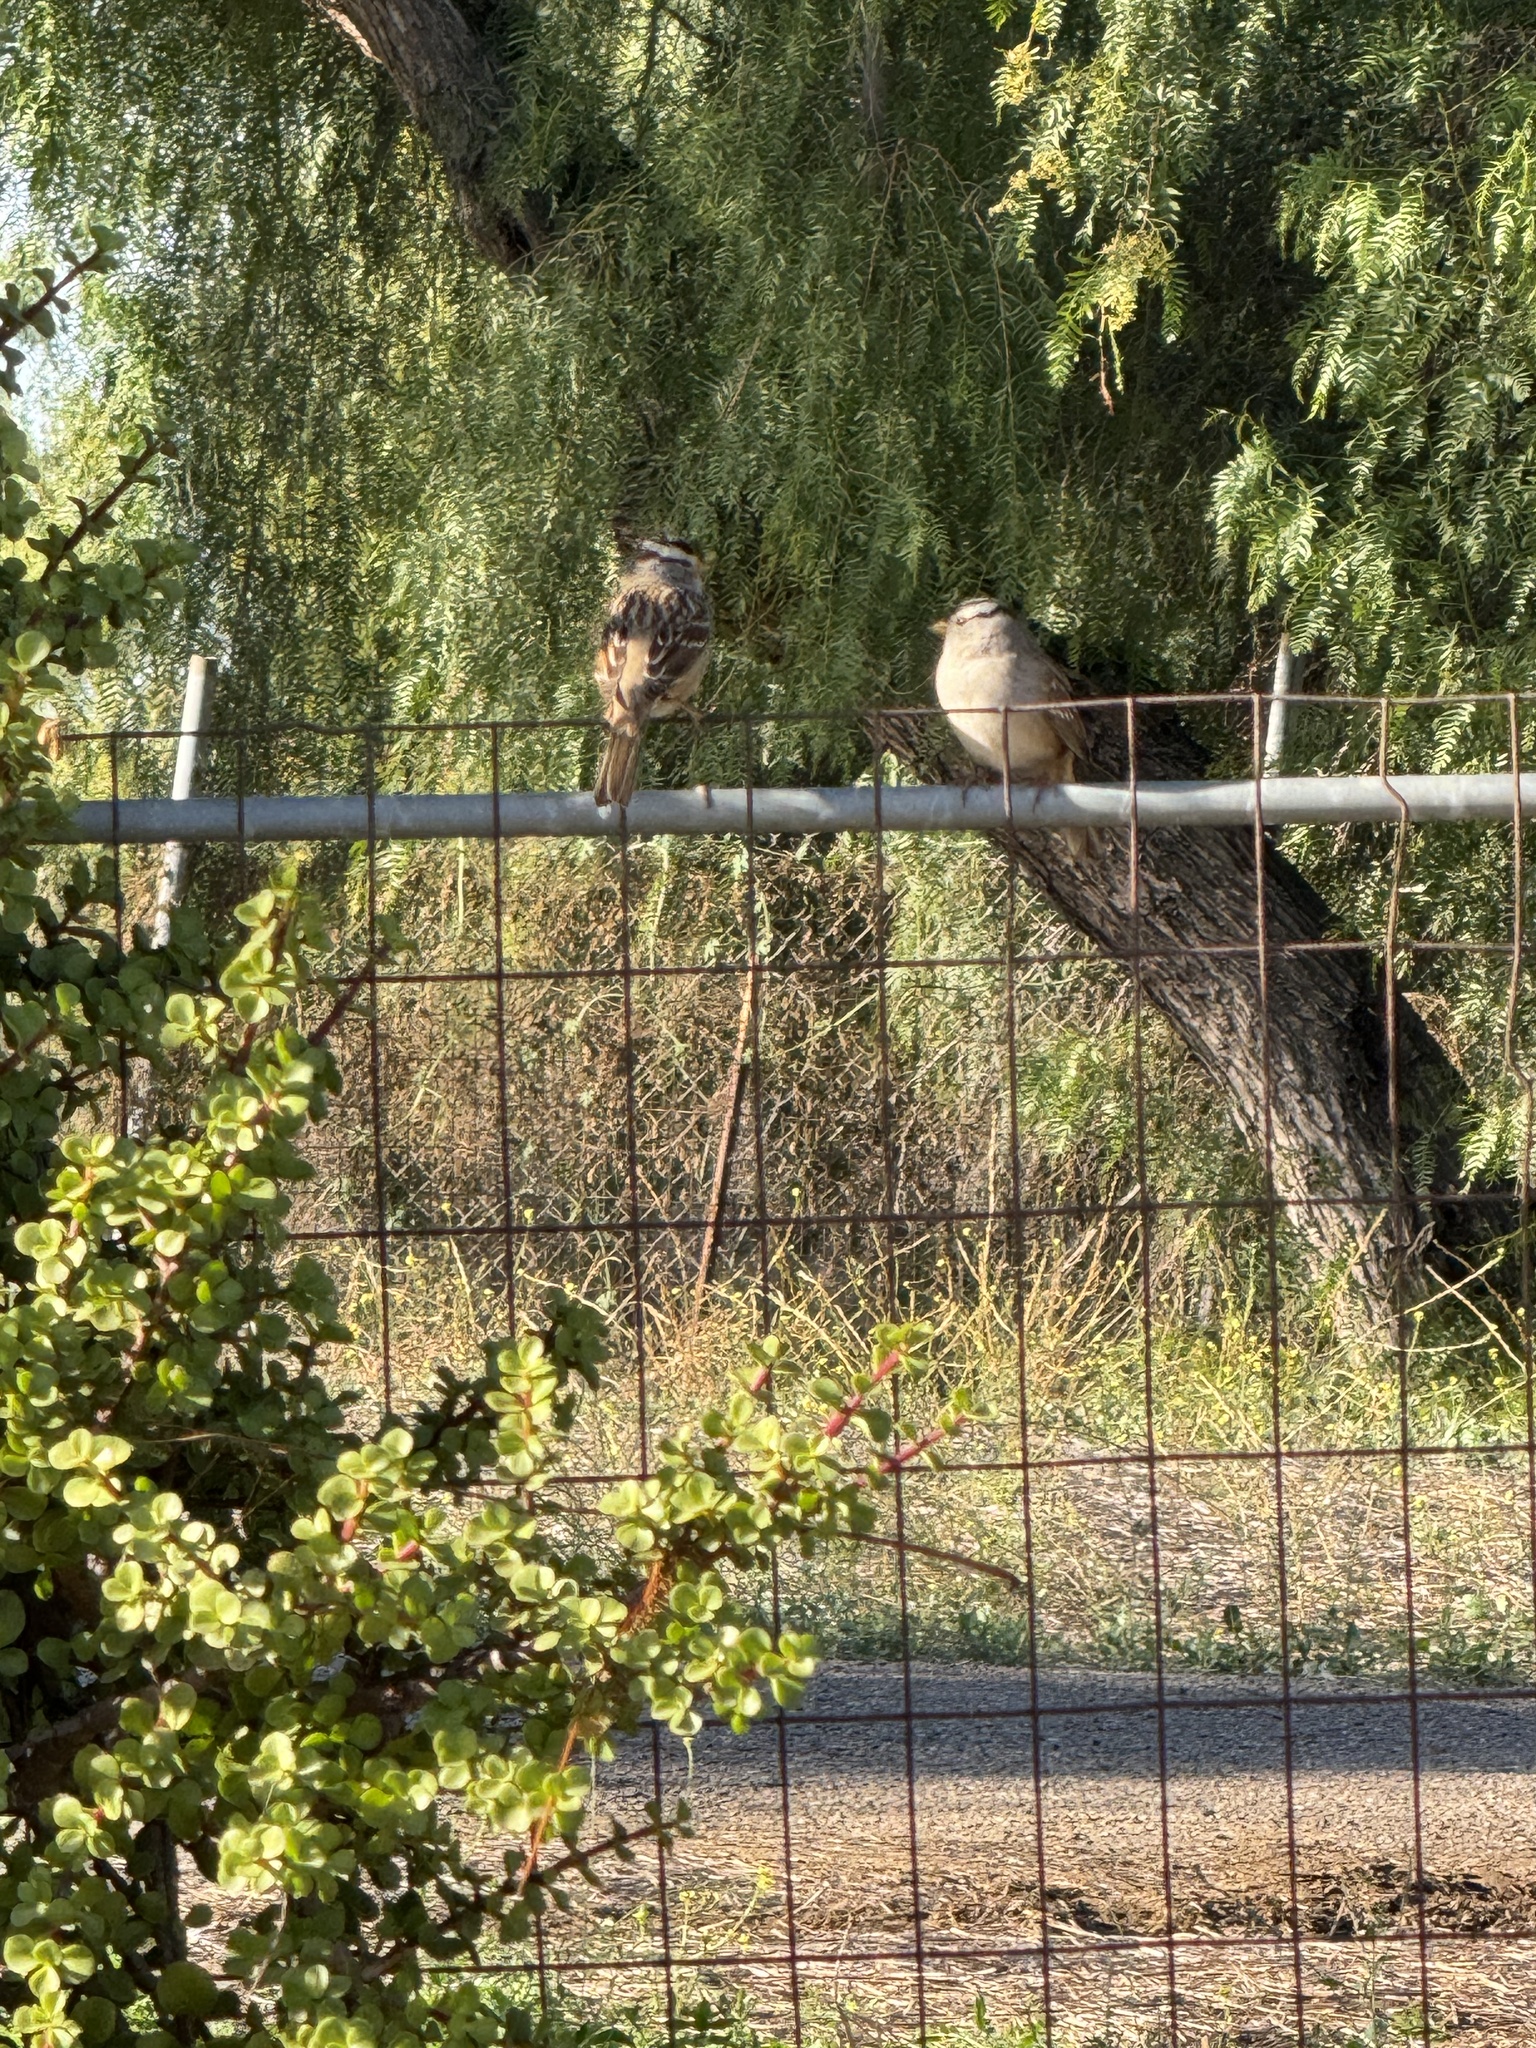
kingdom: Animalia
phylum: Chordata
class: Aves
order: Passeriformes
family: Passerellidae
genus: Zonotrichia
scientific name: Zonotrichia leucophrys
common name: White-crowned sparrow
